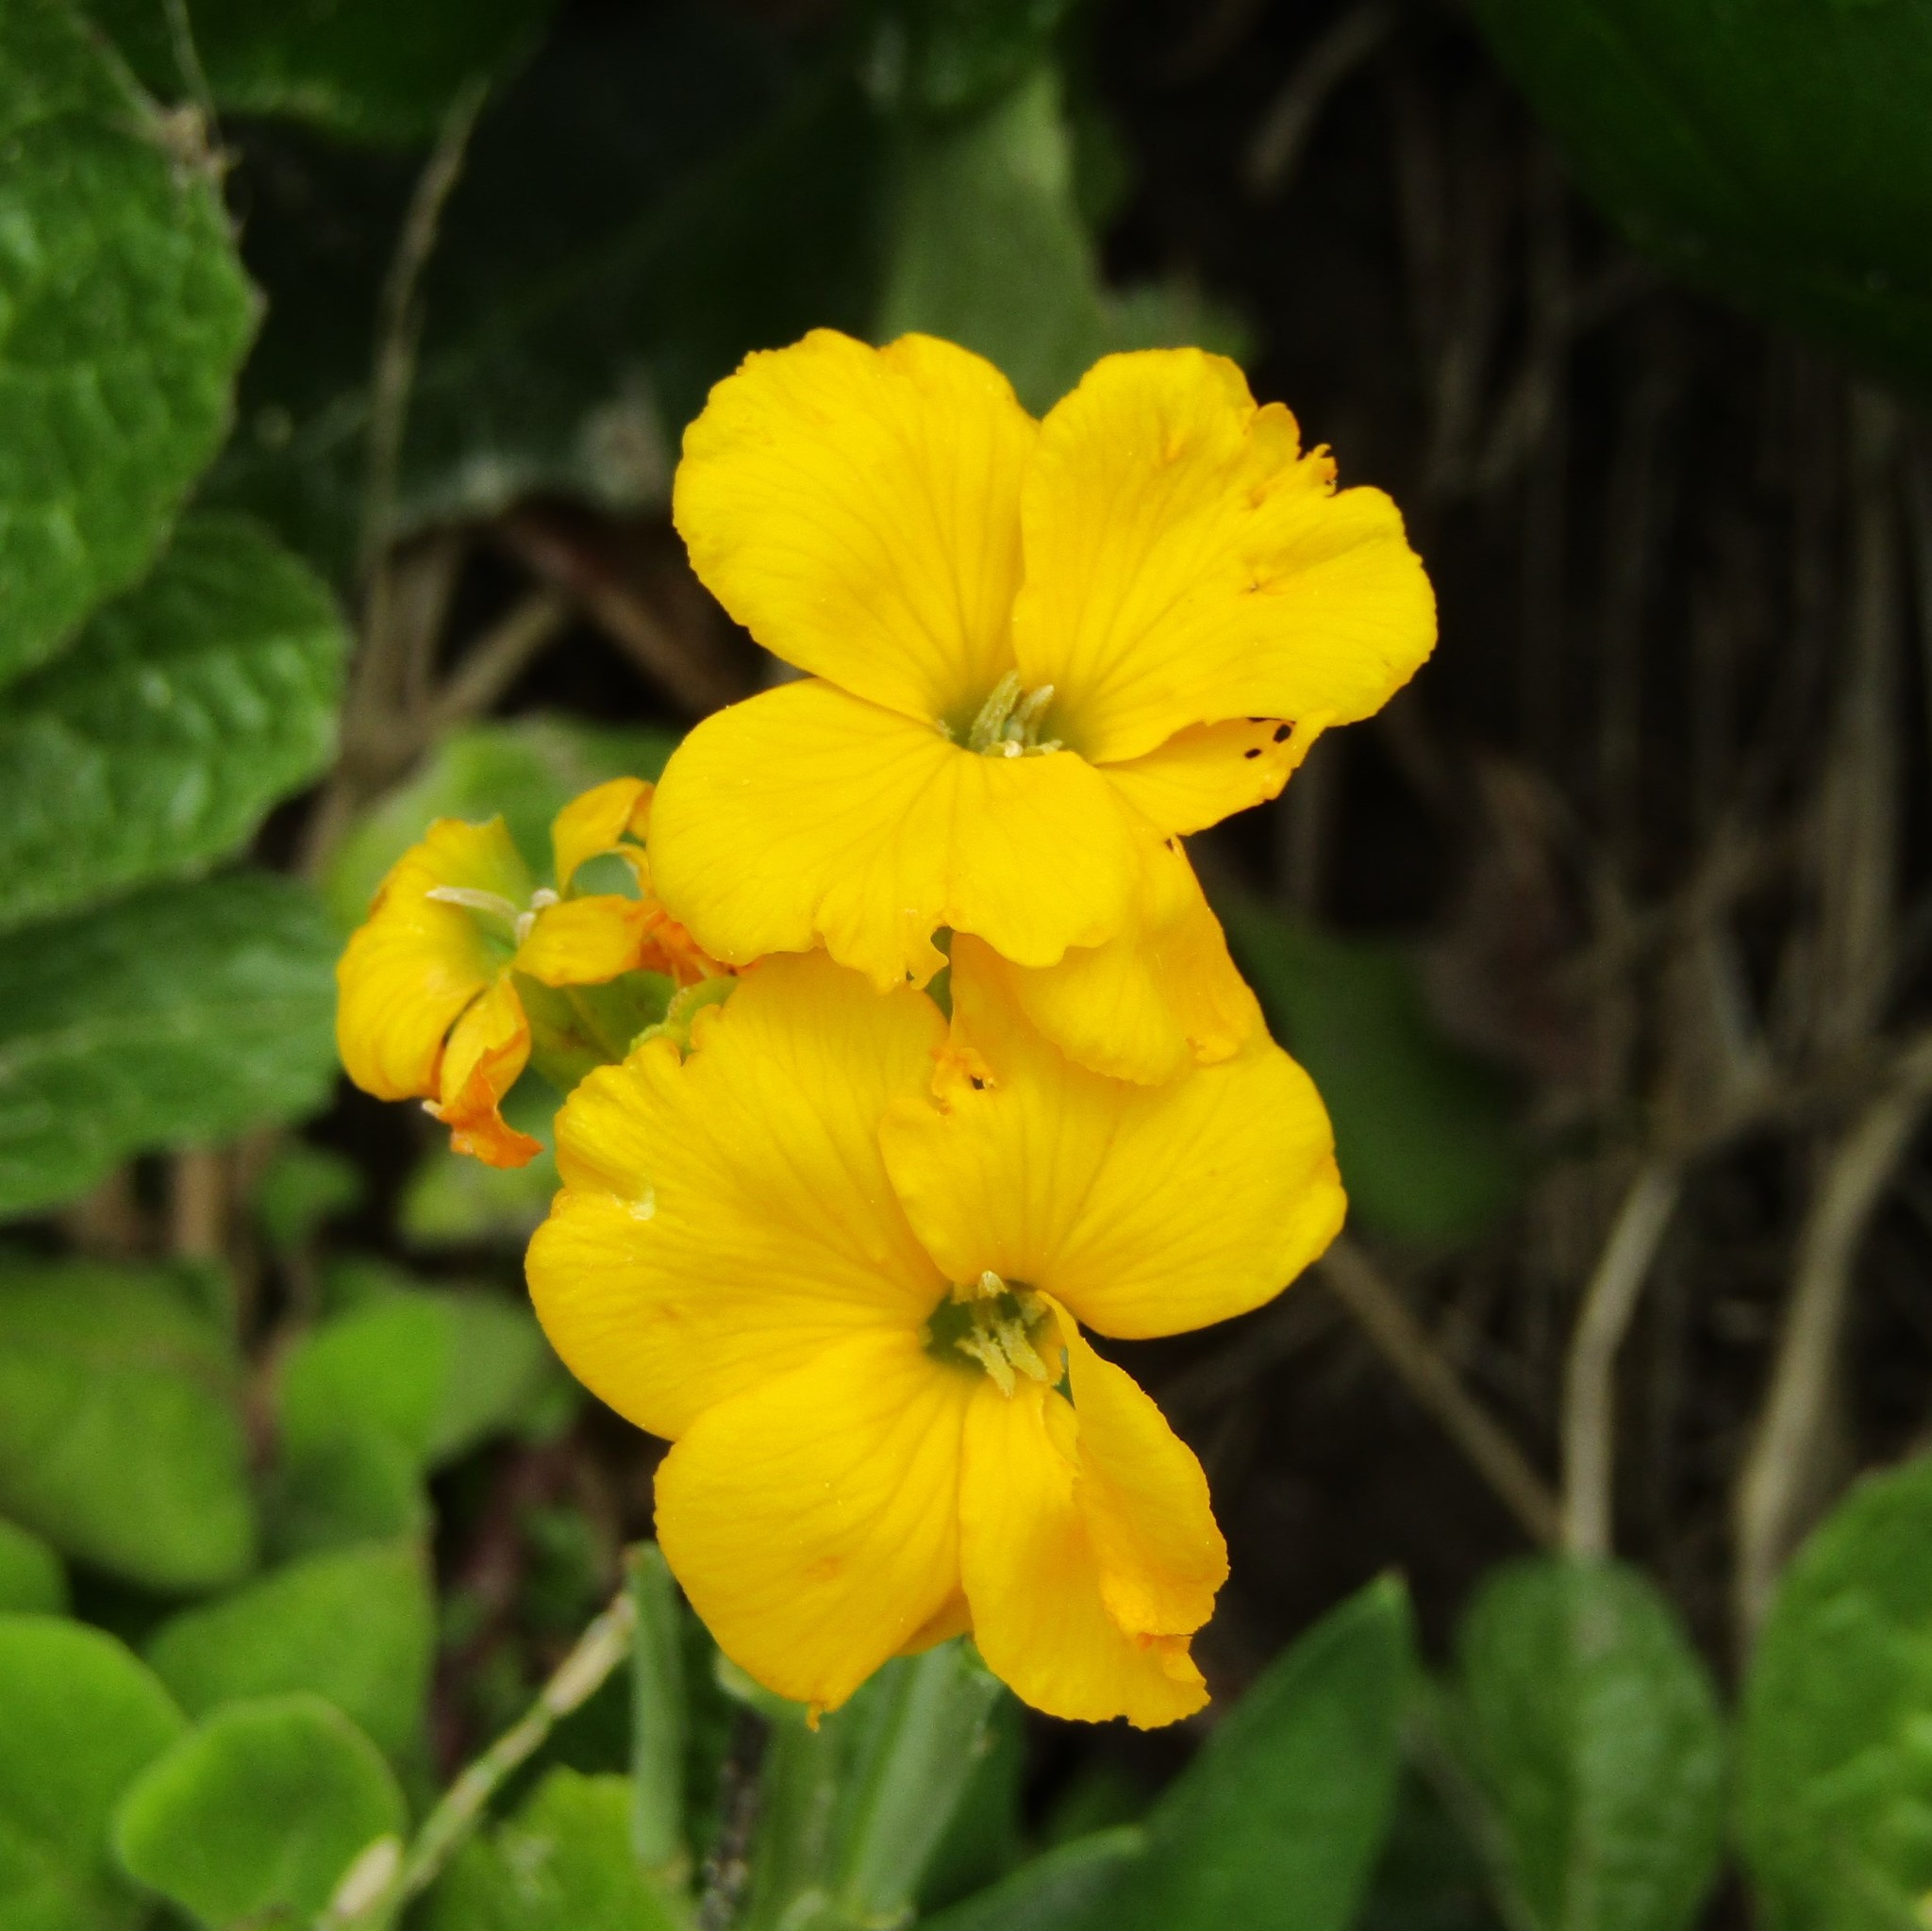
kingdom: Plantae
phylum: Tracheophyta
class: Magnoliopsida
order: Brassicales
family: Brassicaceae
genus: Erysimum
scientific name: Erysimum cheiri
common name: Wallflower
